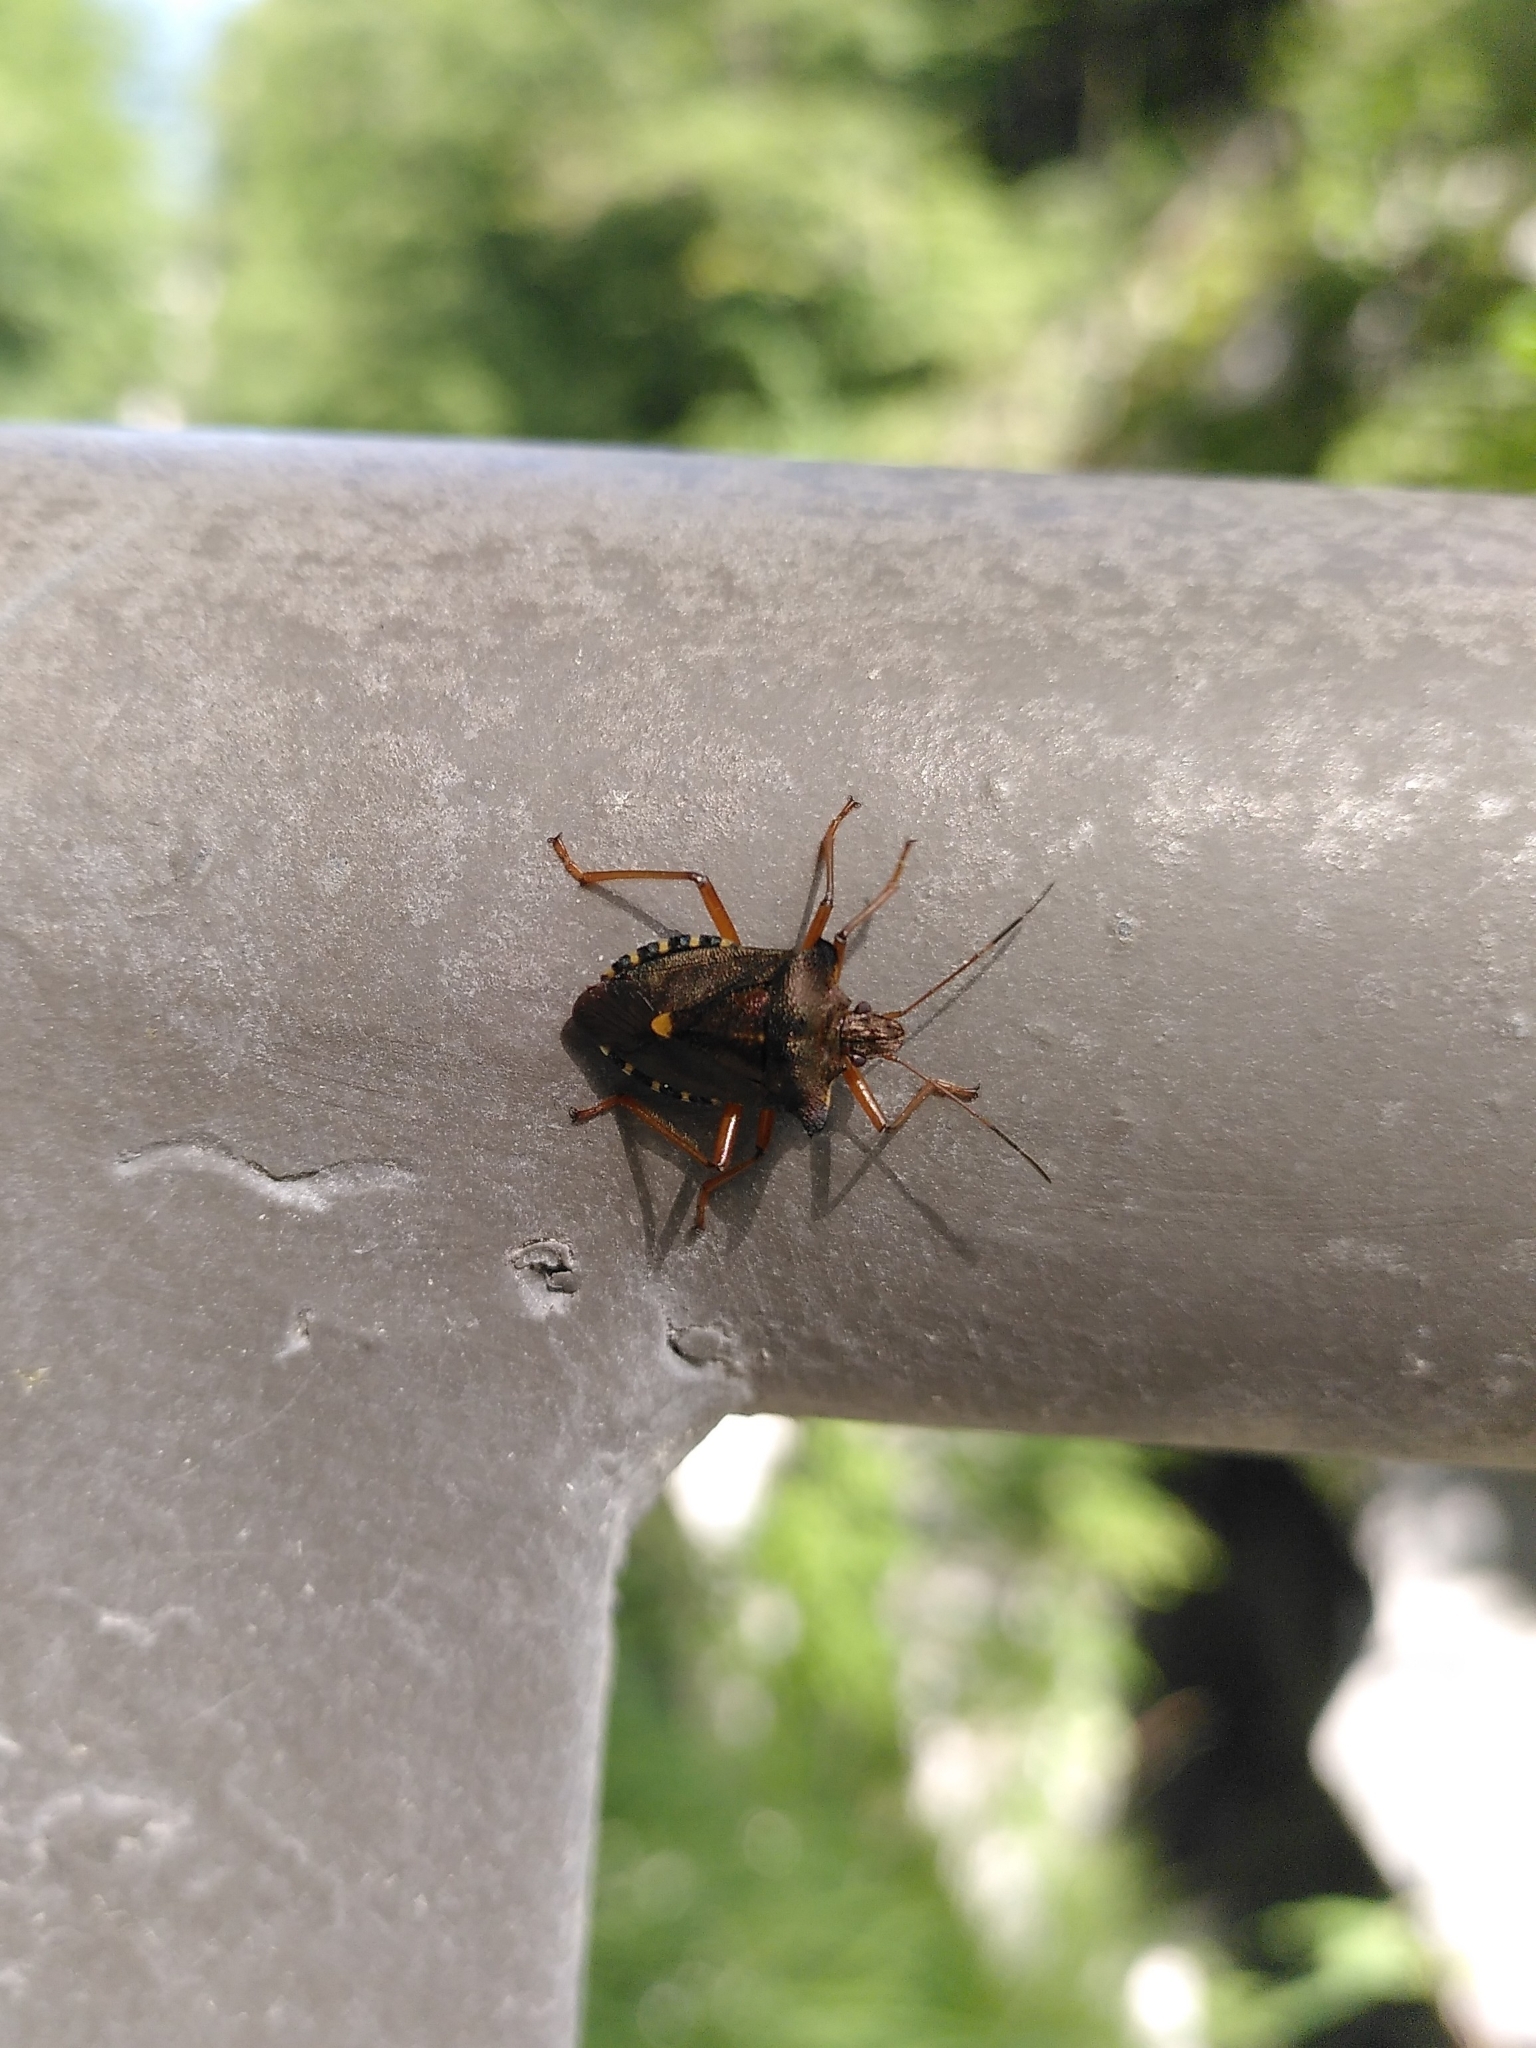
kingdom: Animalia
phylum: Arthropoda
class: Insecta
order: Hemiptera
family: Pentatomidae
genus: Pentatoma
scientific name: Pentatoma rufipes
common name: Forest bug
